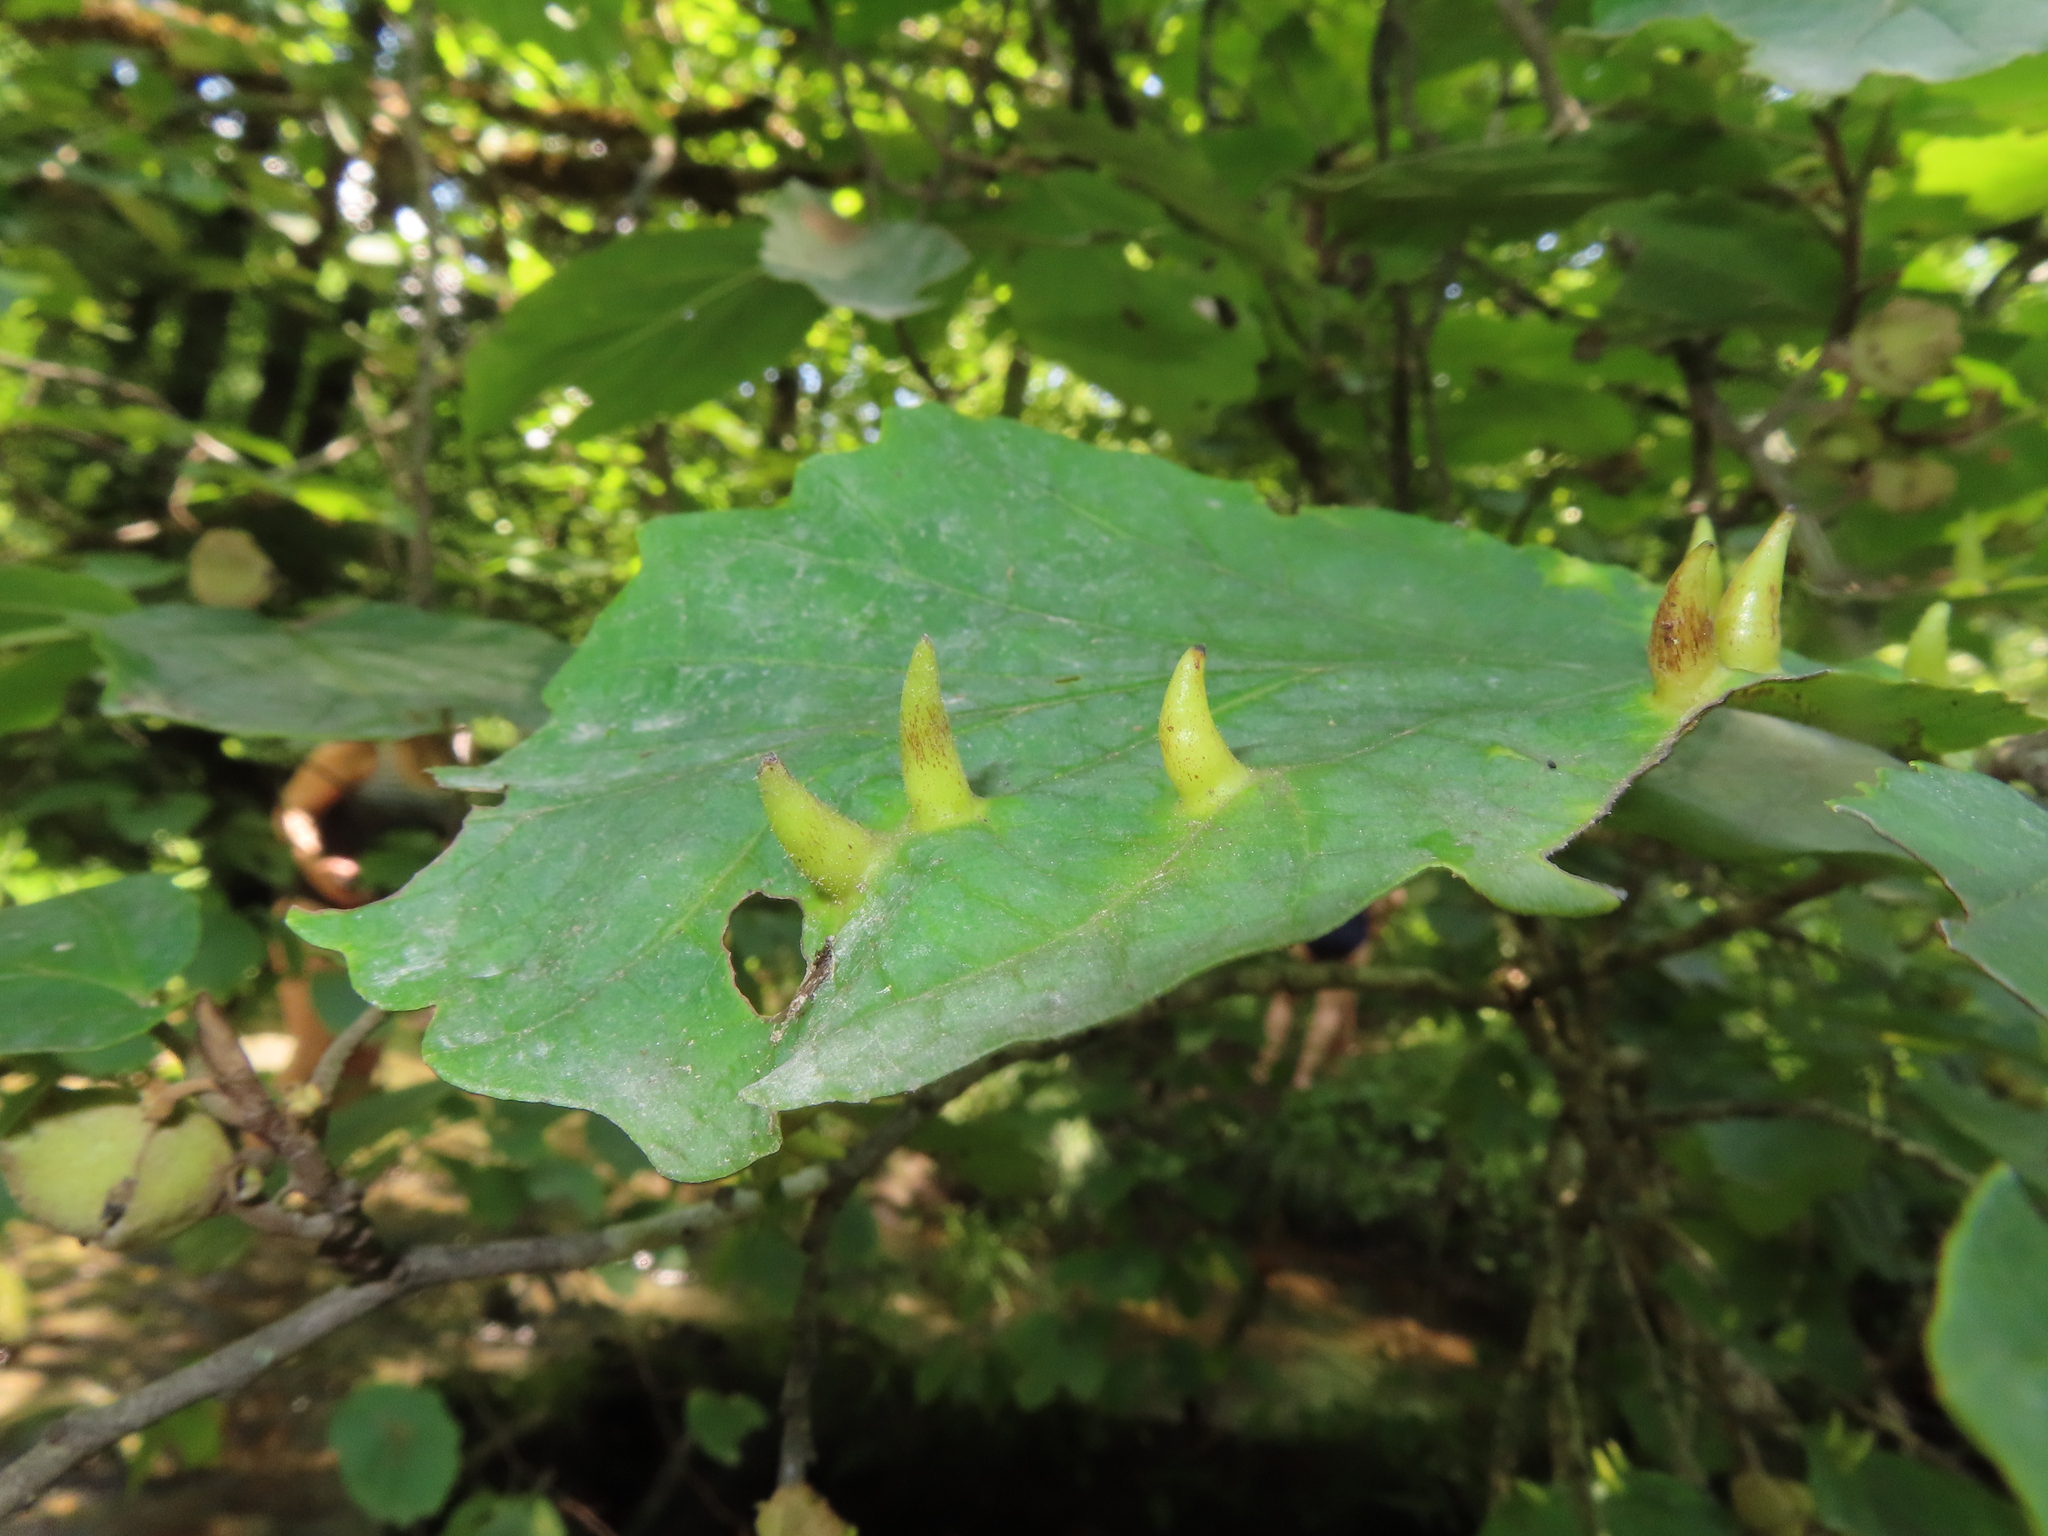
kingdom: Animalia
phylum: Arthropoda
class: Insecta
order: Hemiptera
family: Aphididae
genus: Hormaphis
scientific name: Hormaphis hamamelidis
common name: Witch-hazel cone gall aphid
